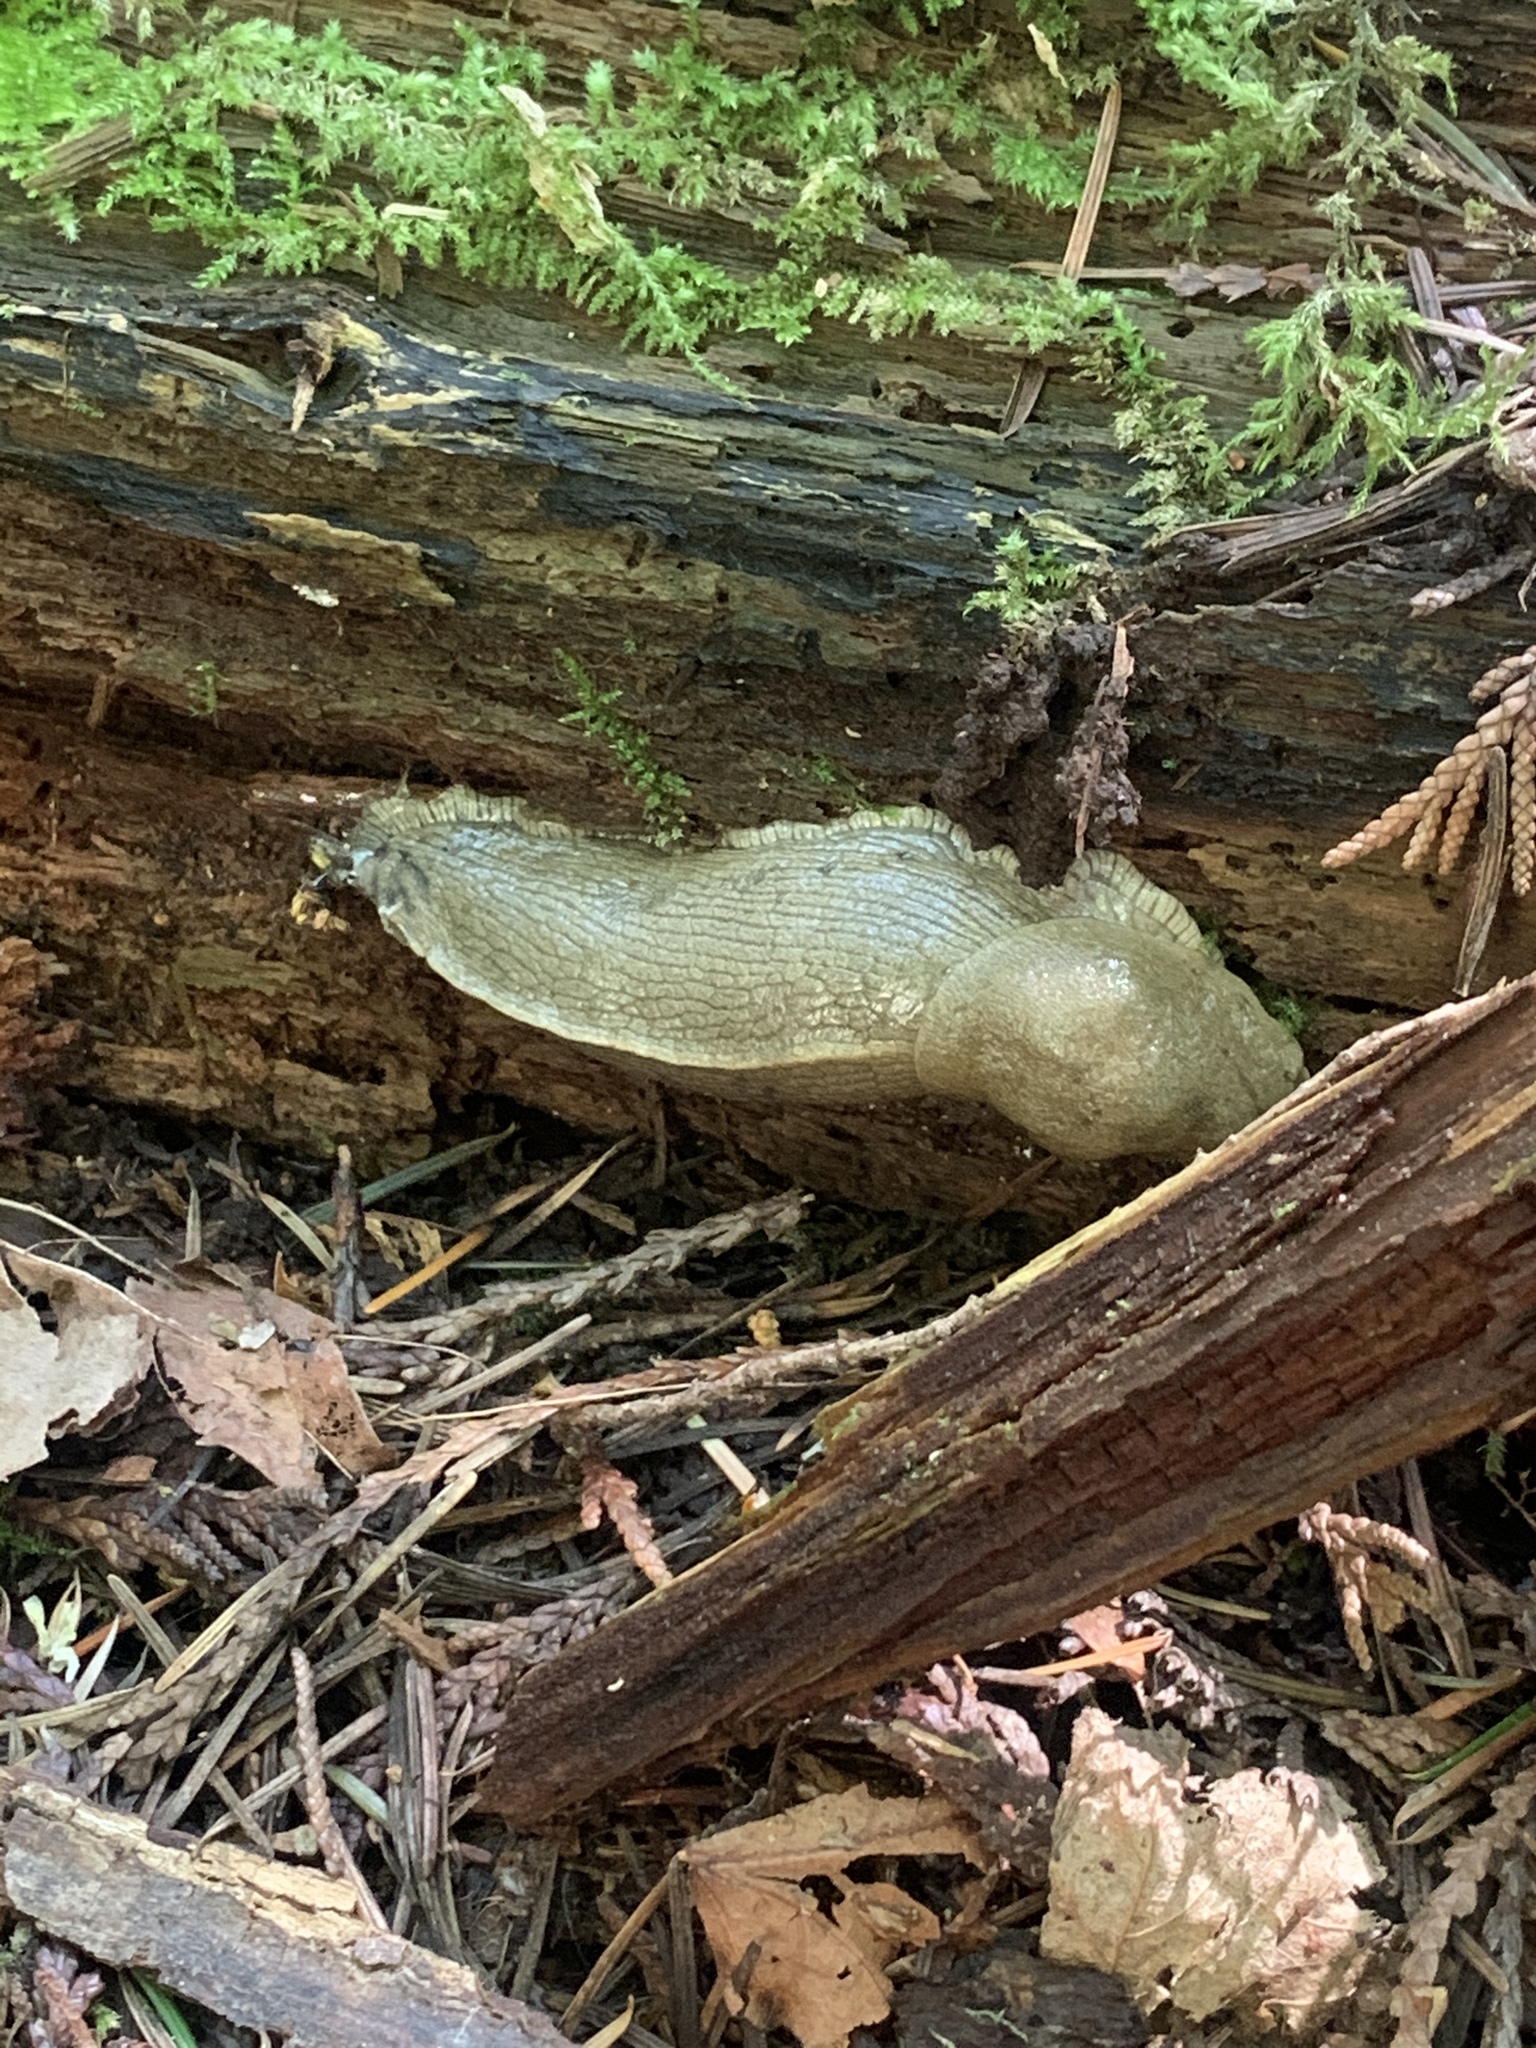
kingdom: Animalia
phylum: Mollusca
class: Gastropoda
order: Stylommatophora
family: Ariolimacidae
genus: Ariolimax
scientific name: Ariolimax columbianus
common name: Pacific banana slug
